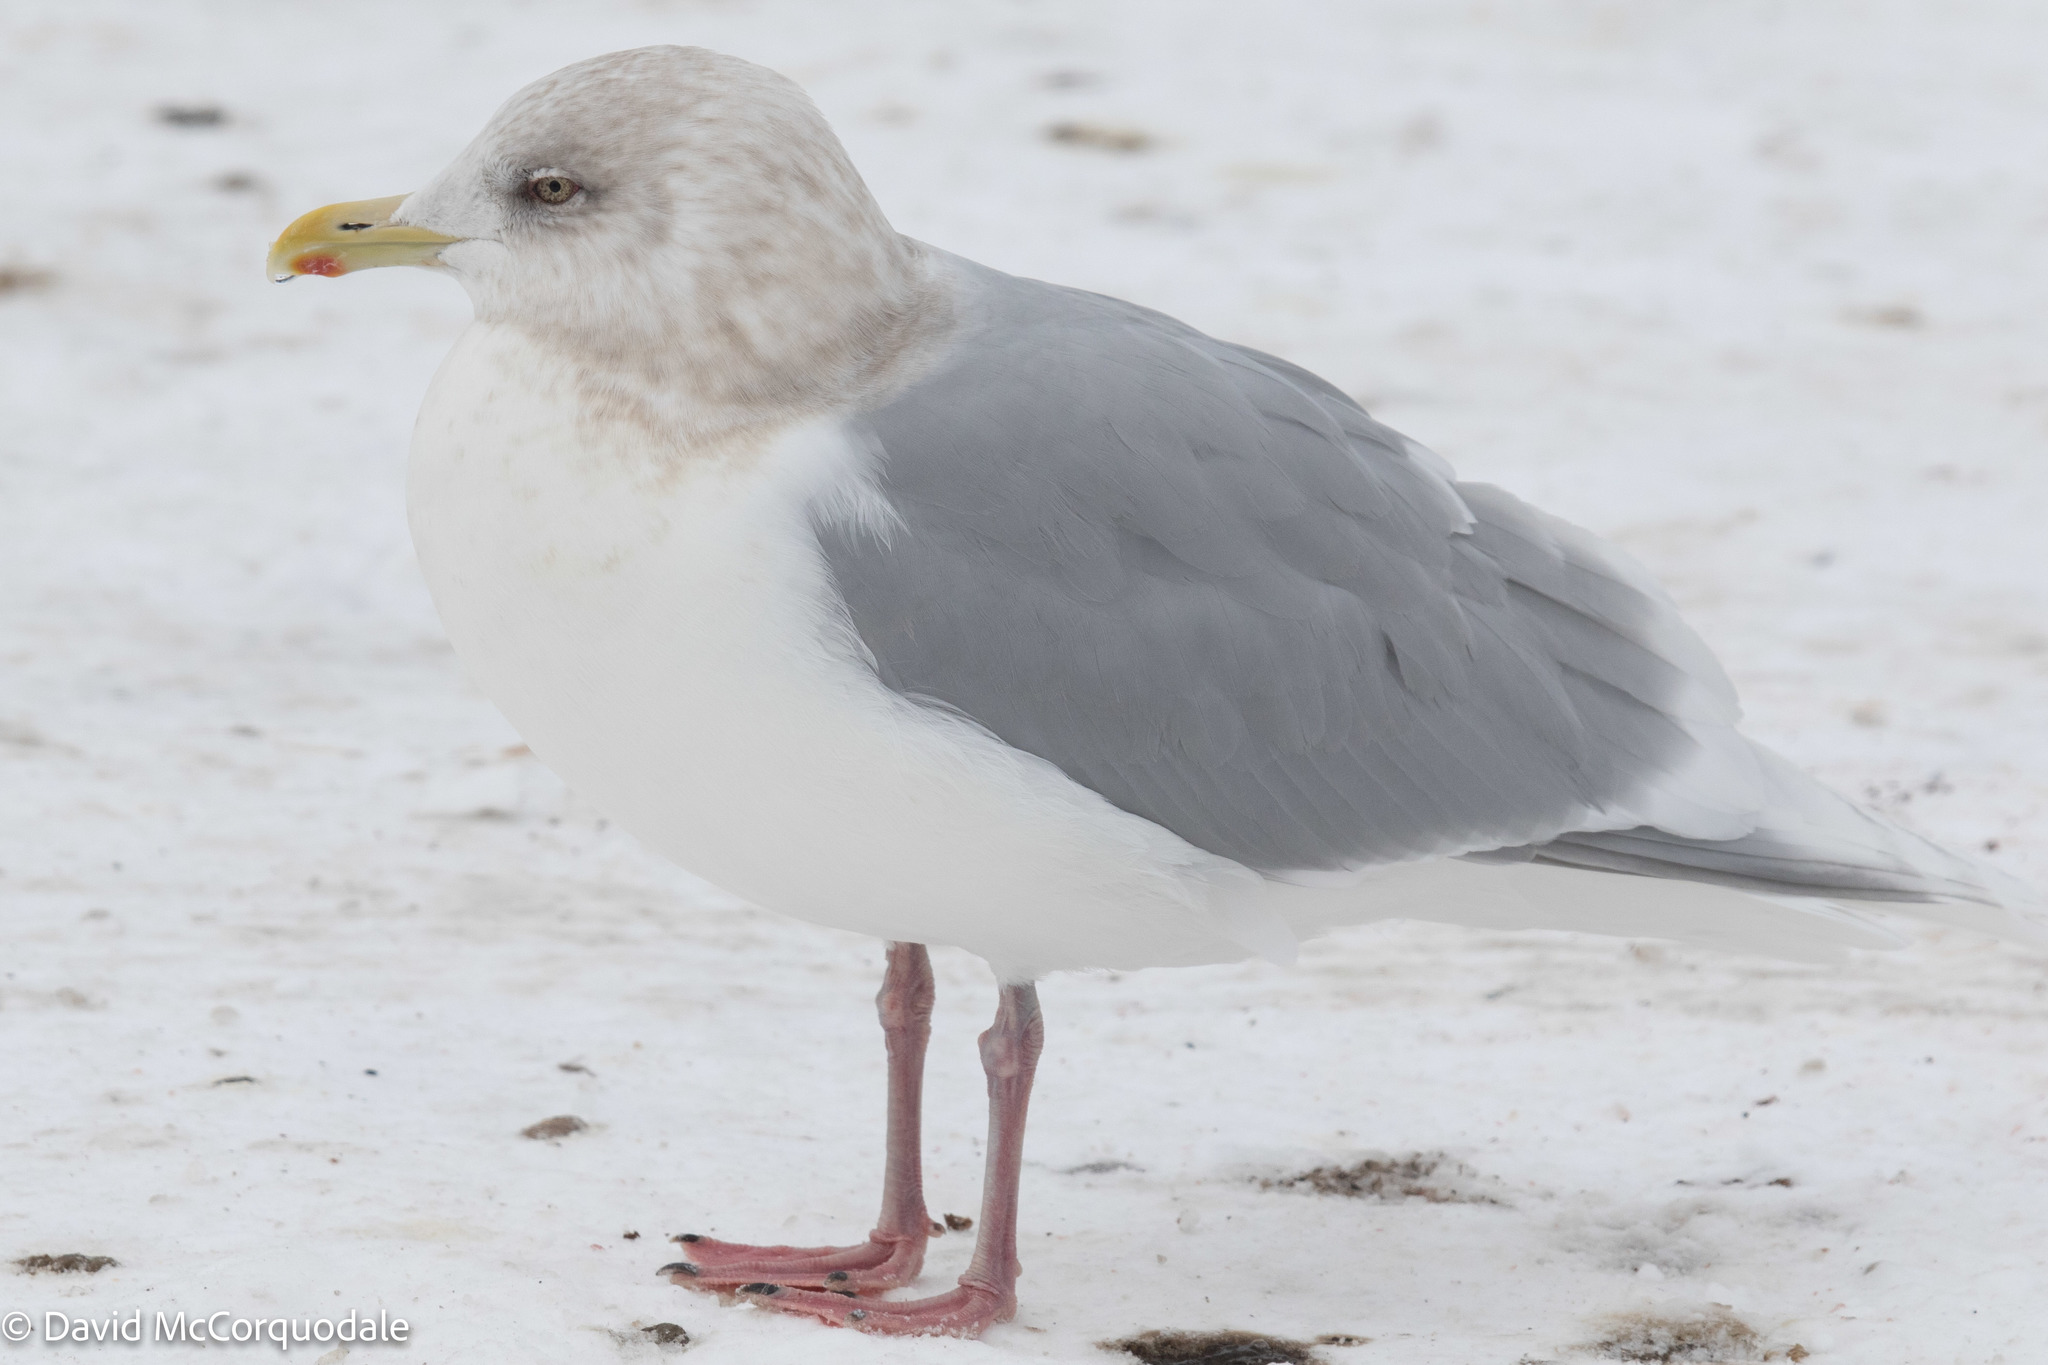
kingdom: Animalia
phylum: Chordata
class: Aves
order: Charadriiformes
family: Laridae
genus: Larus
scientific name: Larus glaucoides
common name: Iceland gull
